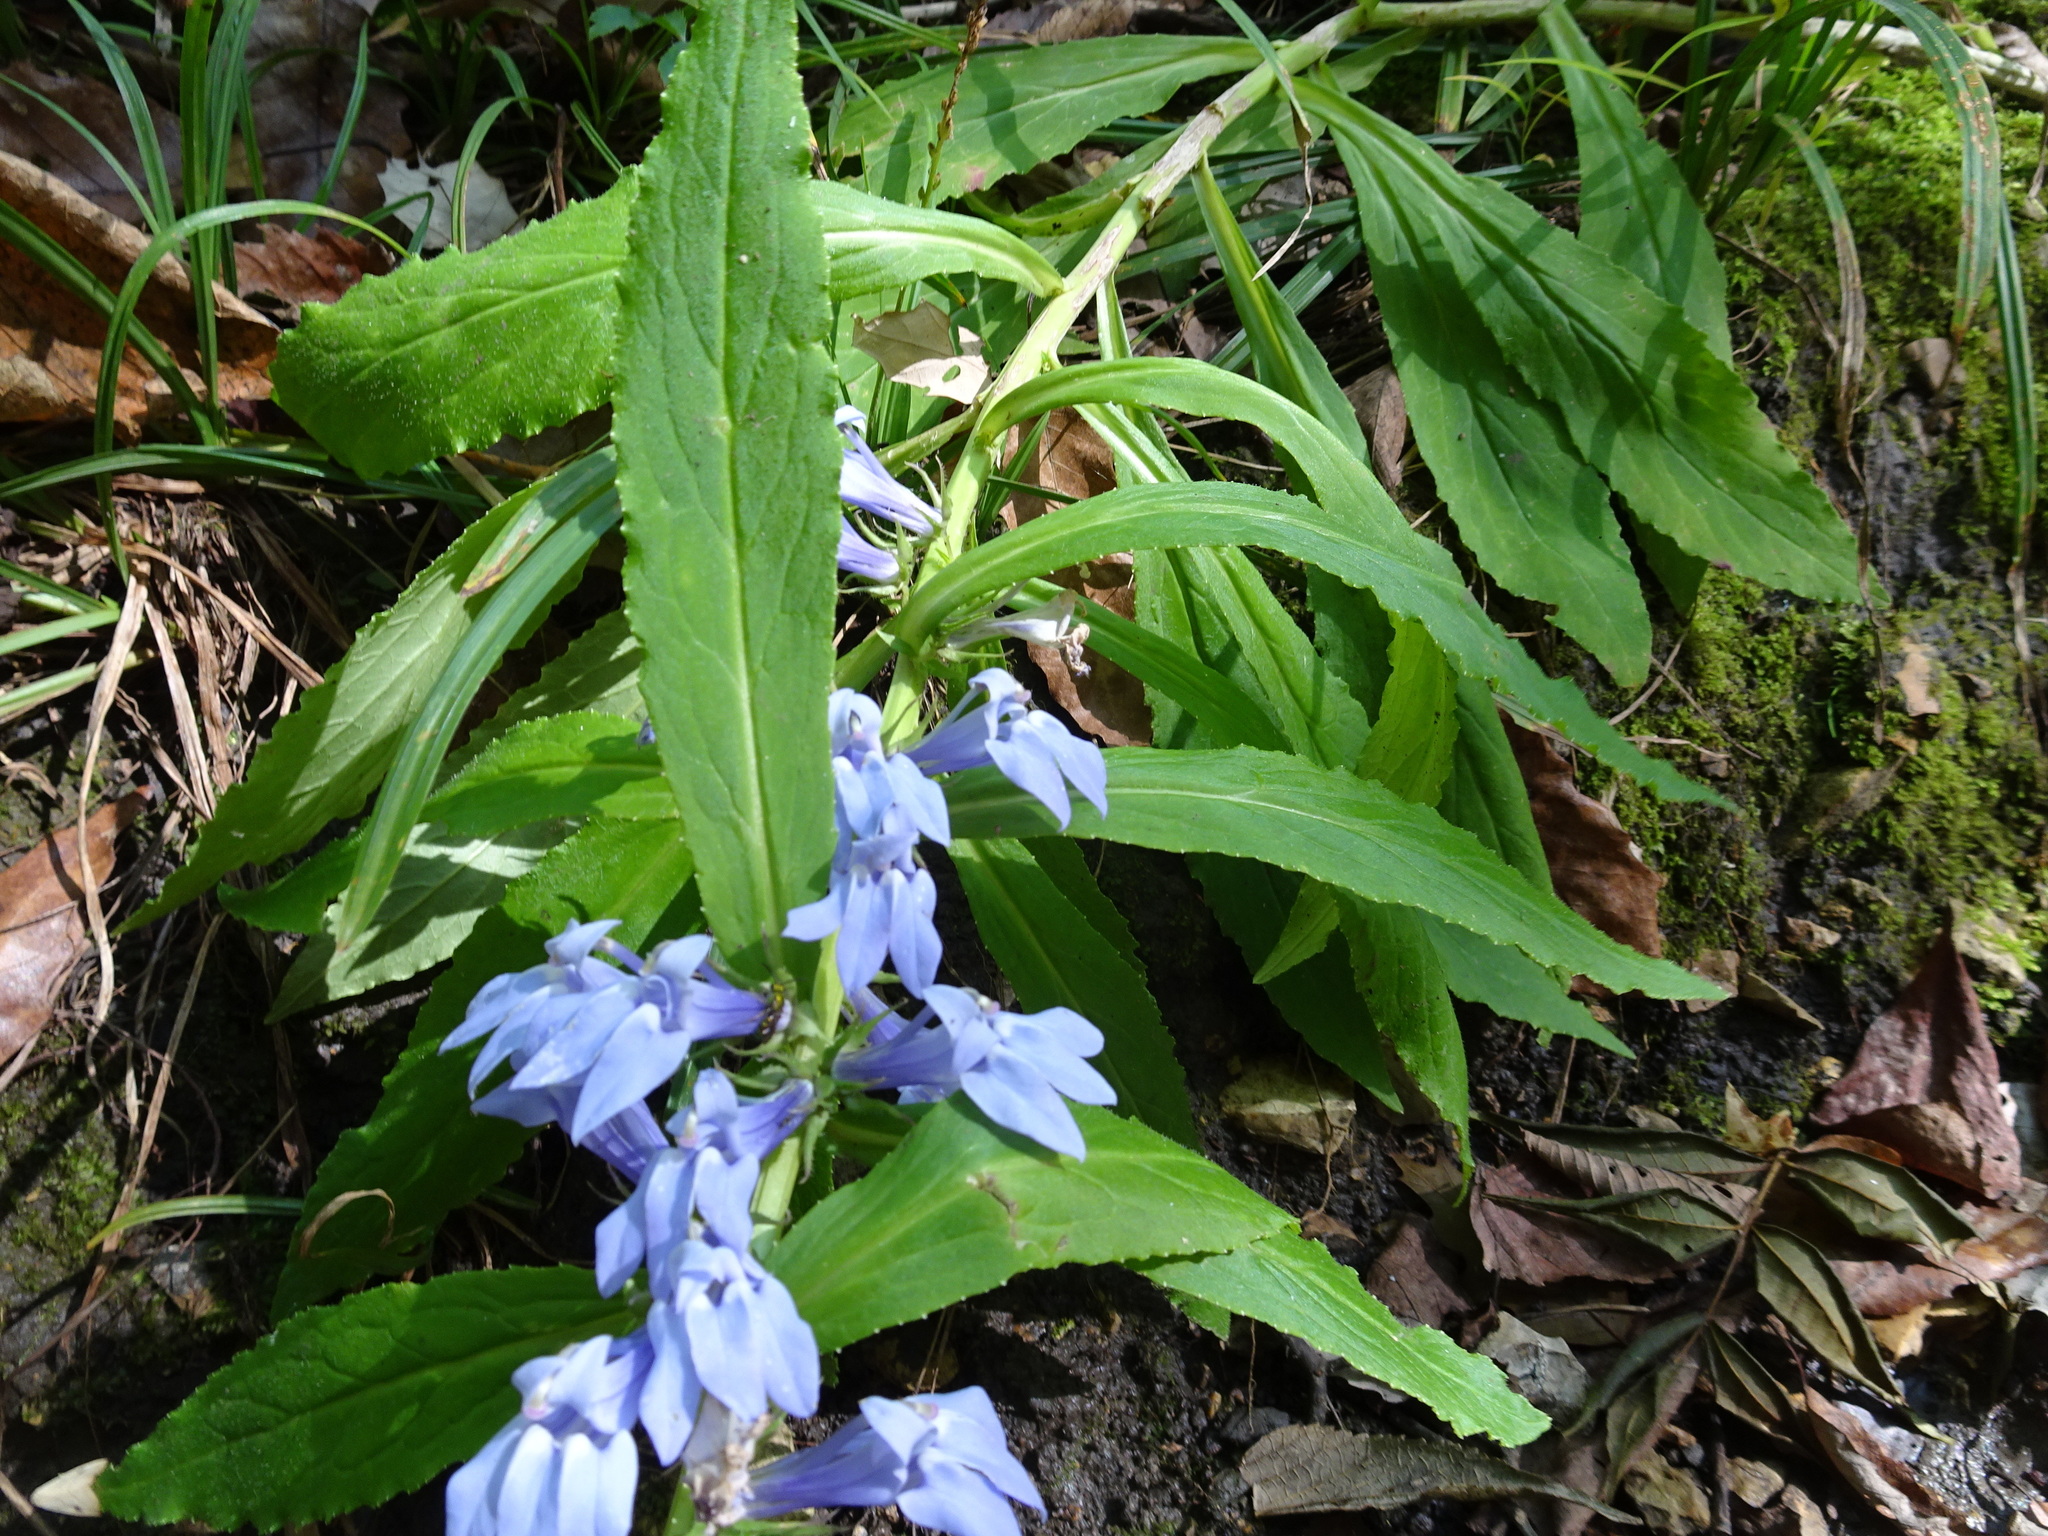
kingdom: Plantae
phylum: Tracheophyta
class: Magnoliopsida
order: Asterales
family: Campanulaceae
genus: Lobelia
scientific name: Lobelia siphilitica
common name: Great lobelia
